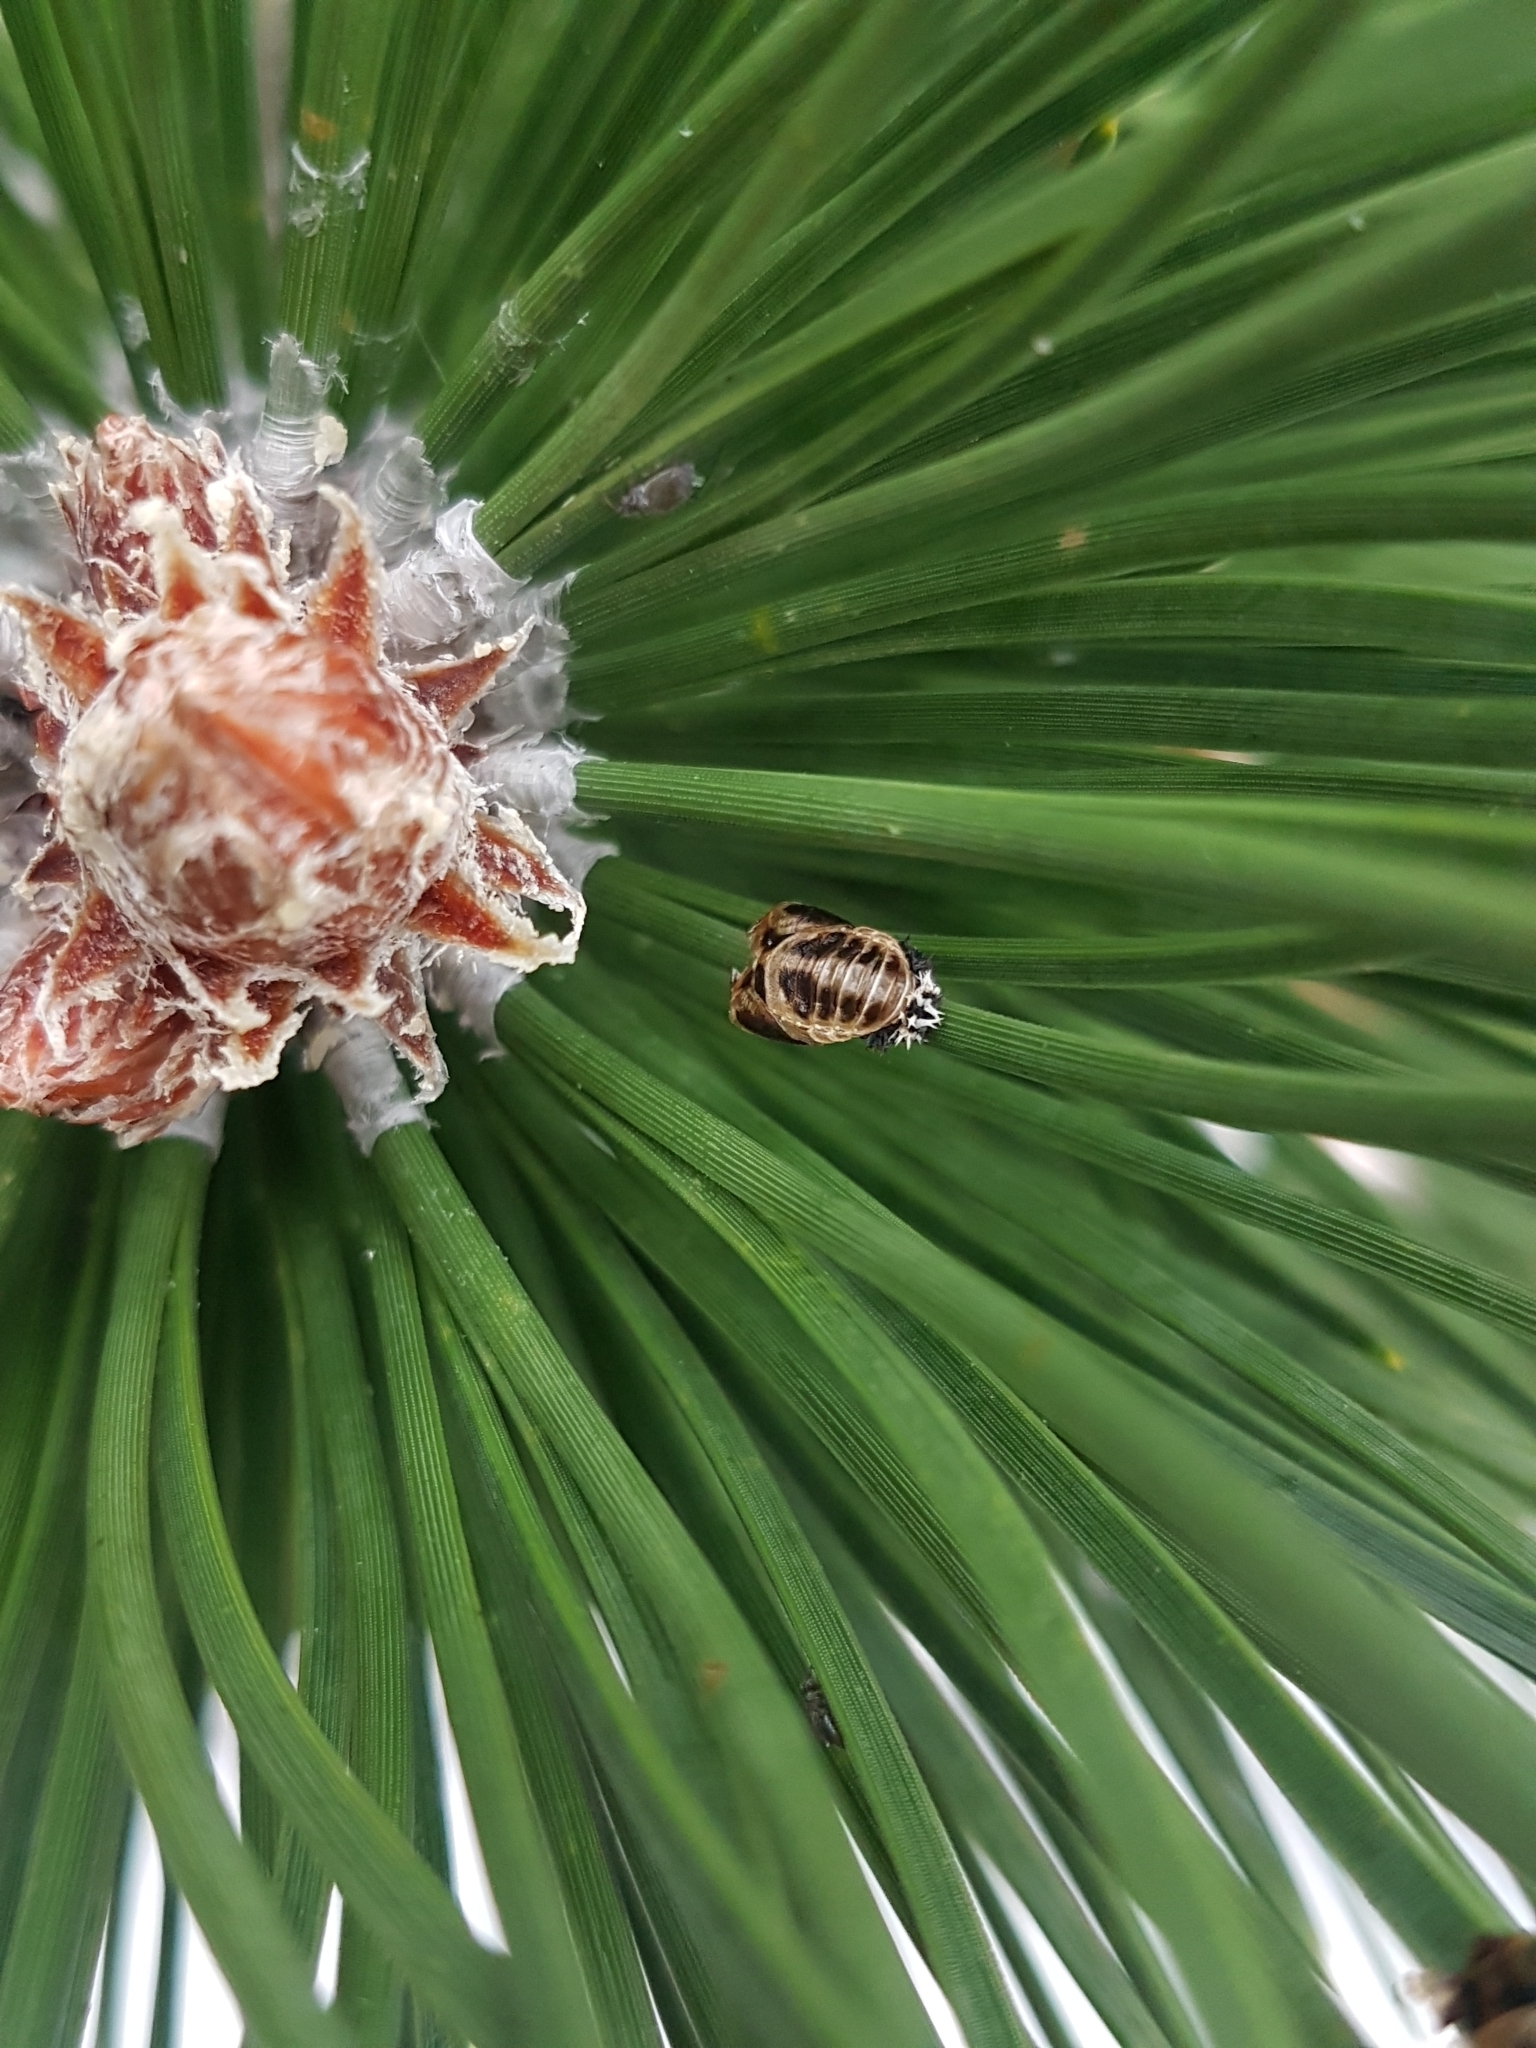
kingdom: Animalia
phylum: Arthropoda
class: Insecta
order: Coleoptera
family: Coccinellidae
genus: Harmonia
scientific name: Harmonia axyridis
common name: Harlequin ladybird
